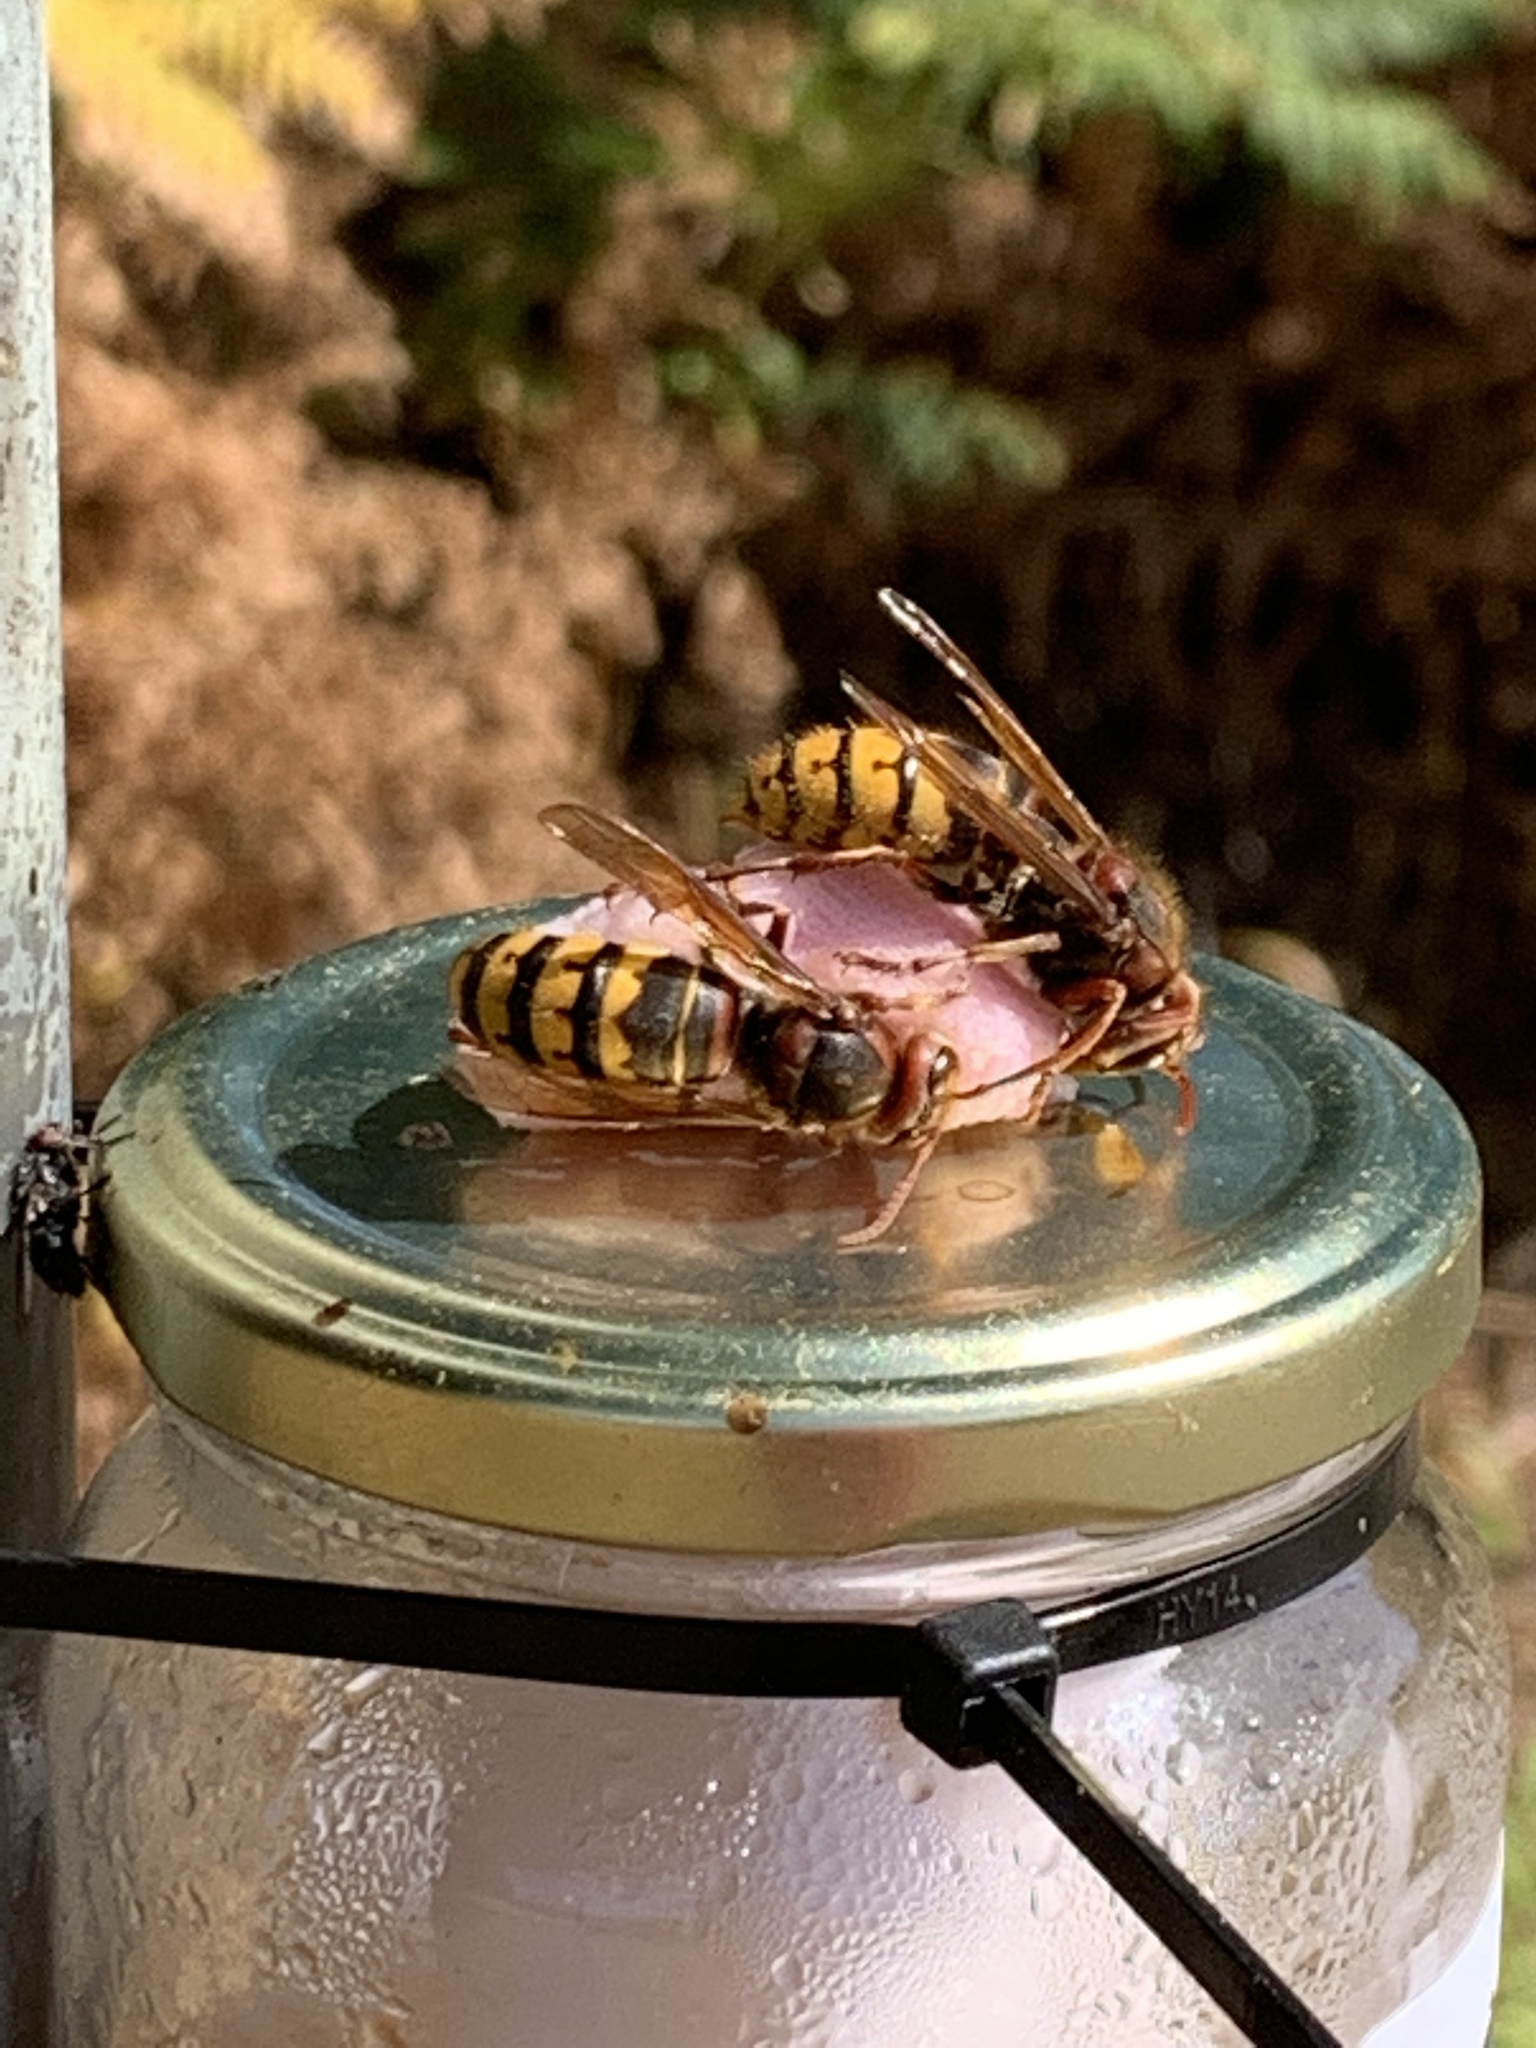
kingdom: Animalia
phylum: Arthropoda
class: Insecta
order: Hymenoptera
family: Vespidae
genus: Vespa
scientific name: Vespa crabro
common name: Hornet
